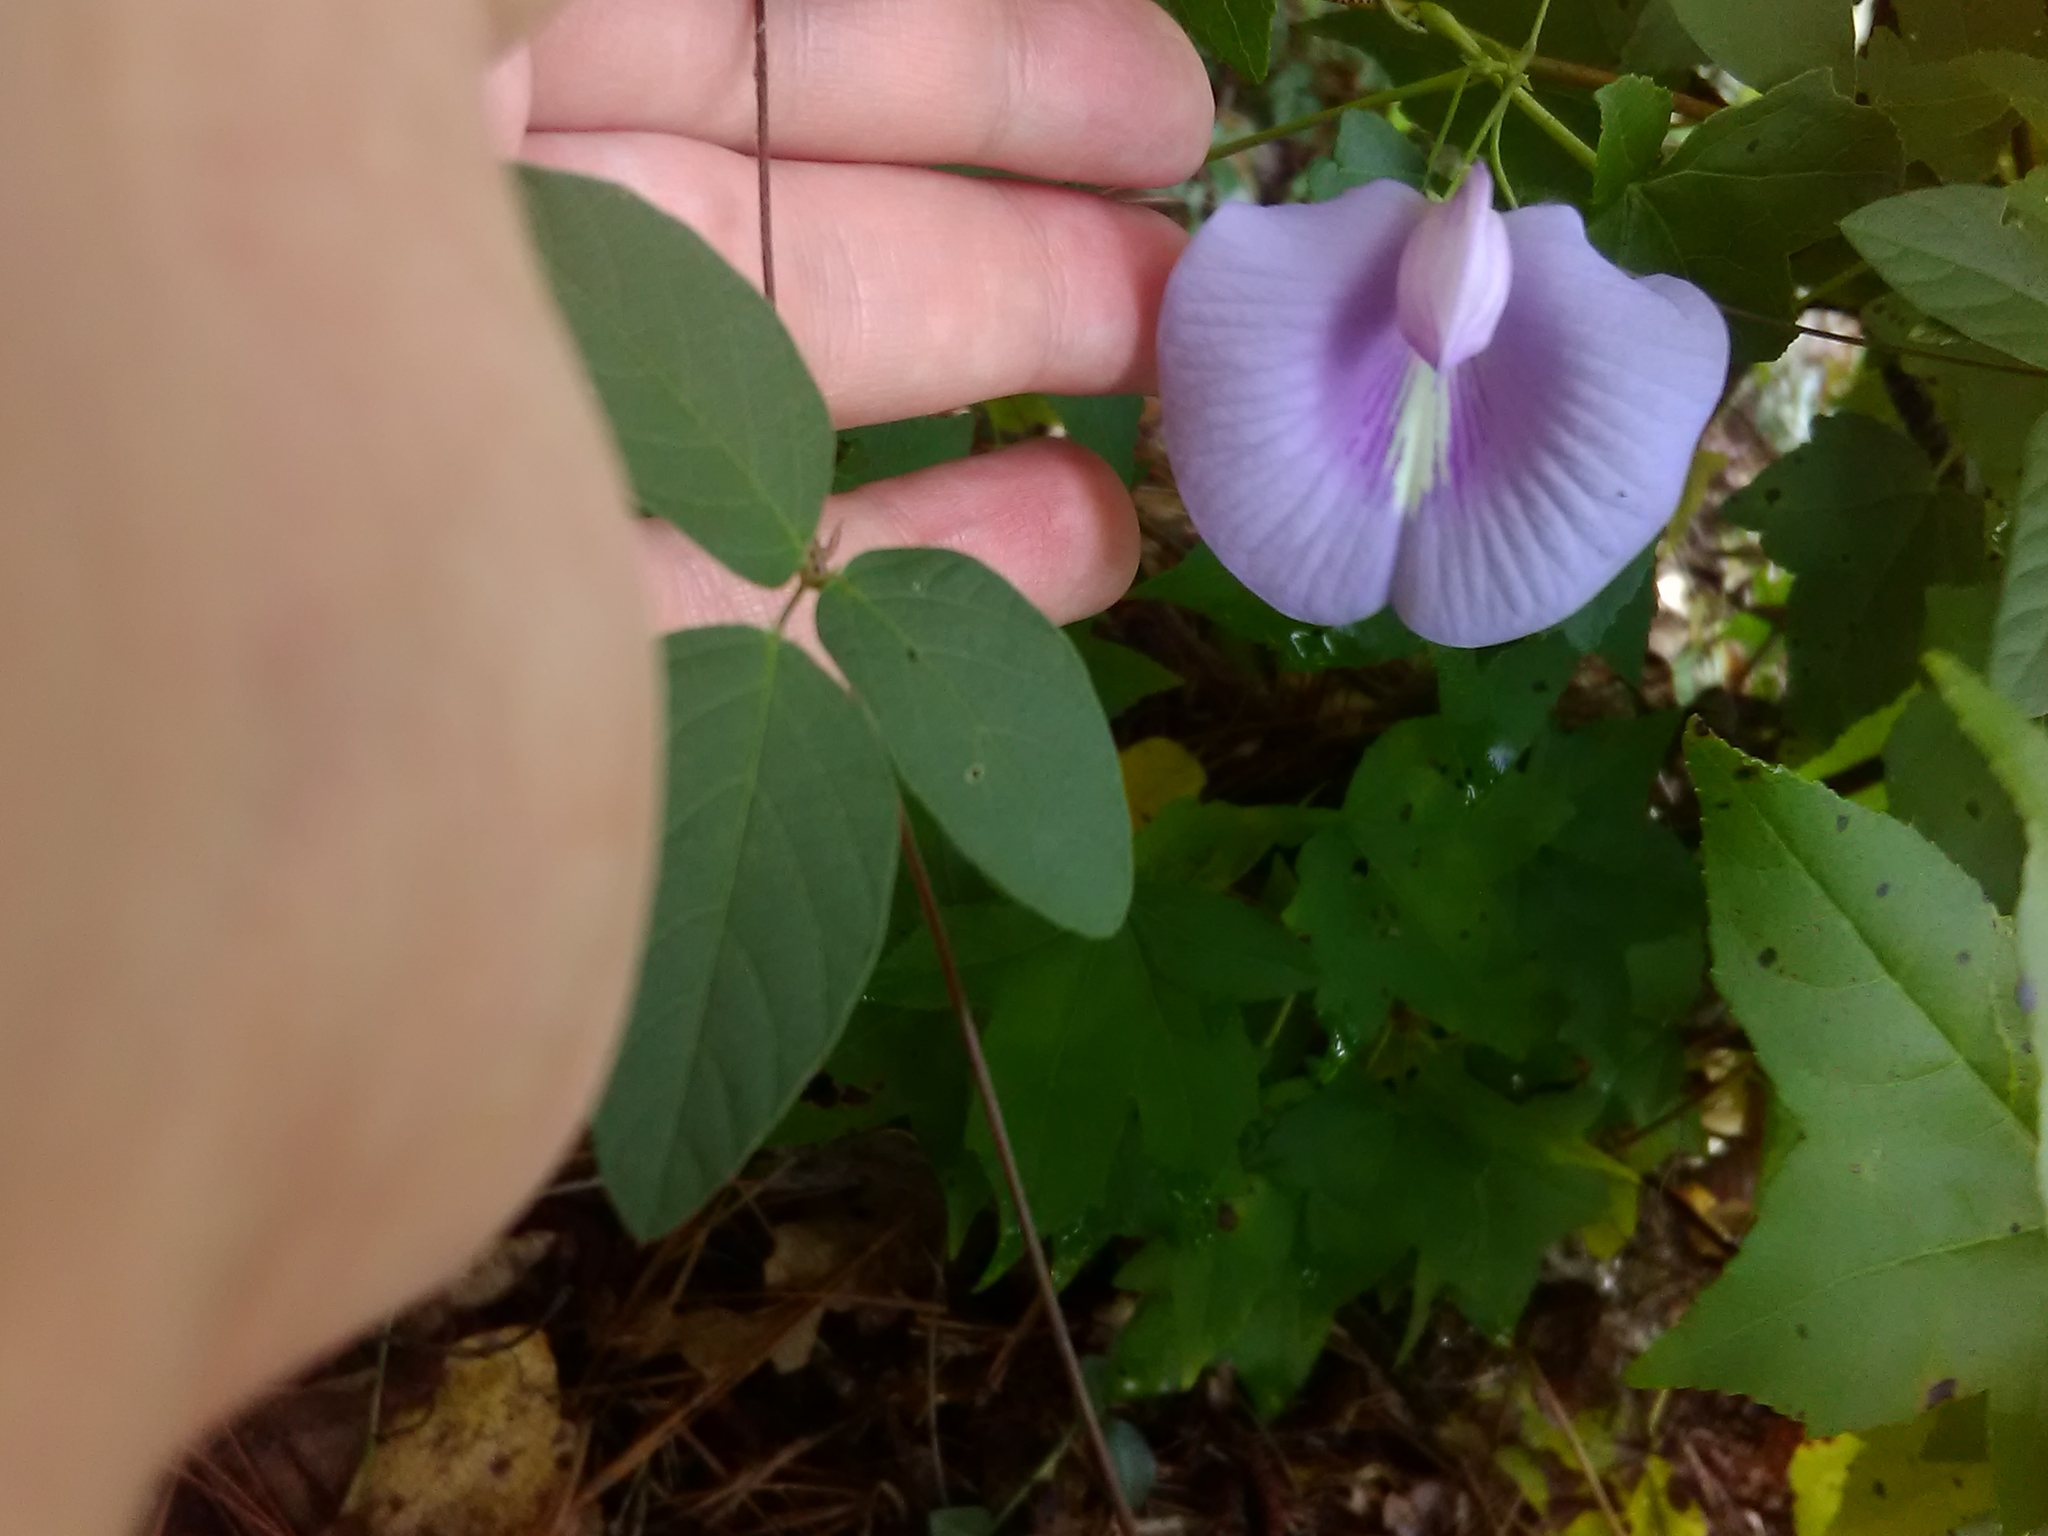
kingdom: Plantae
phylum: Tracheophyta
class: Magnoliopsida
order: Fabales
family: Fabaceae
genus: Centrosema
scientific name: Centrosema virginianum
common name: Butterfly-pea
